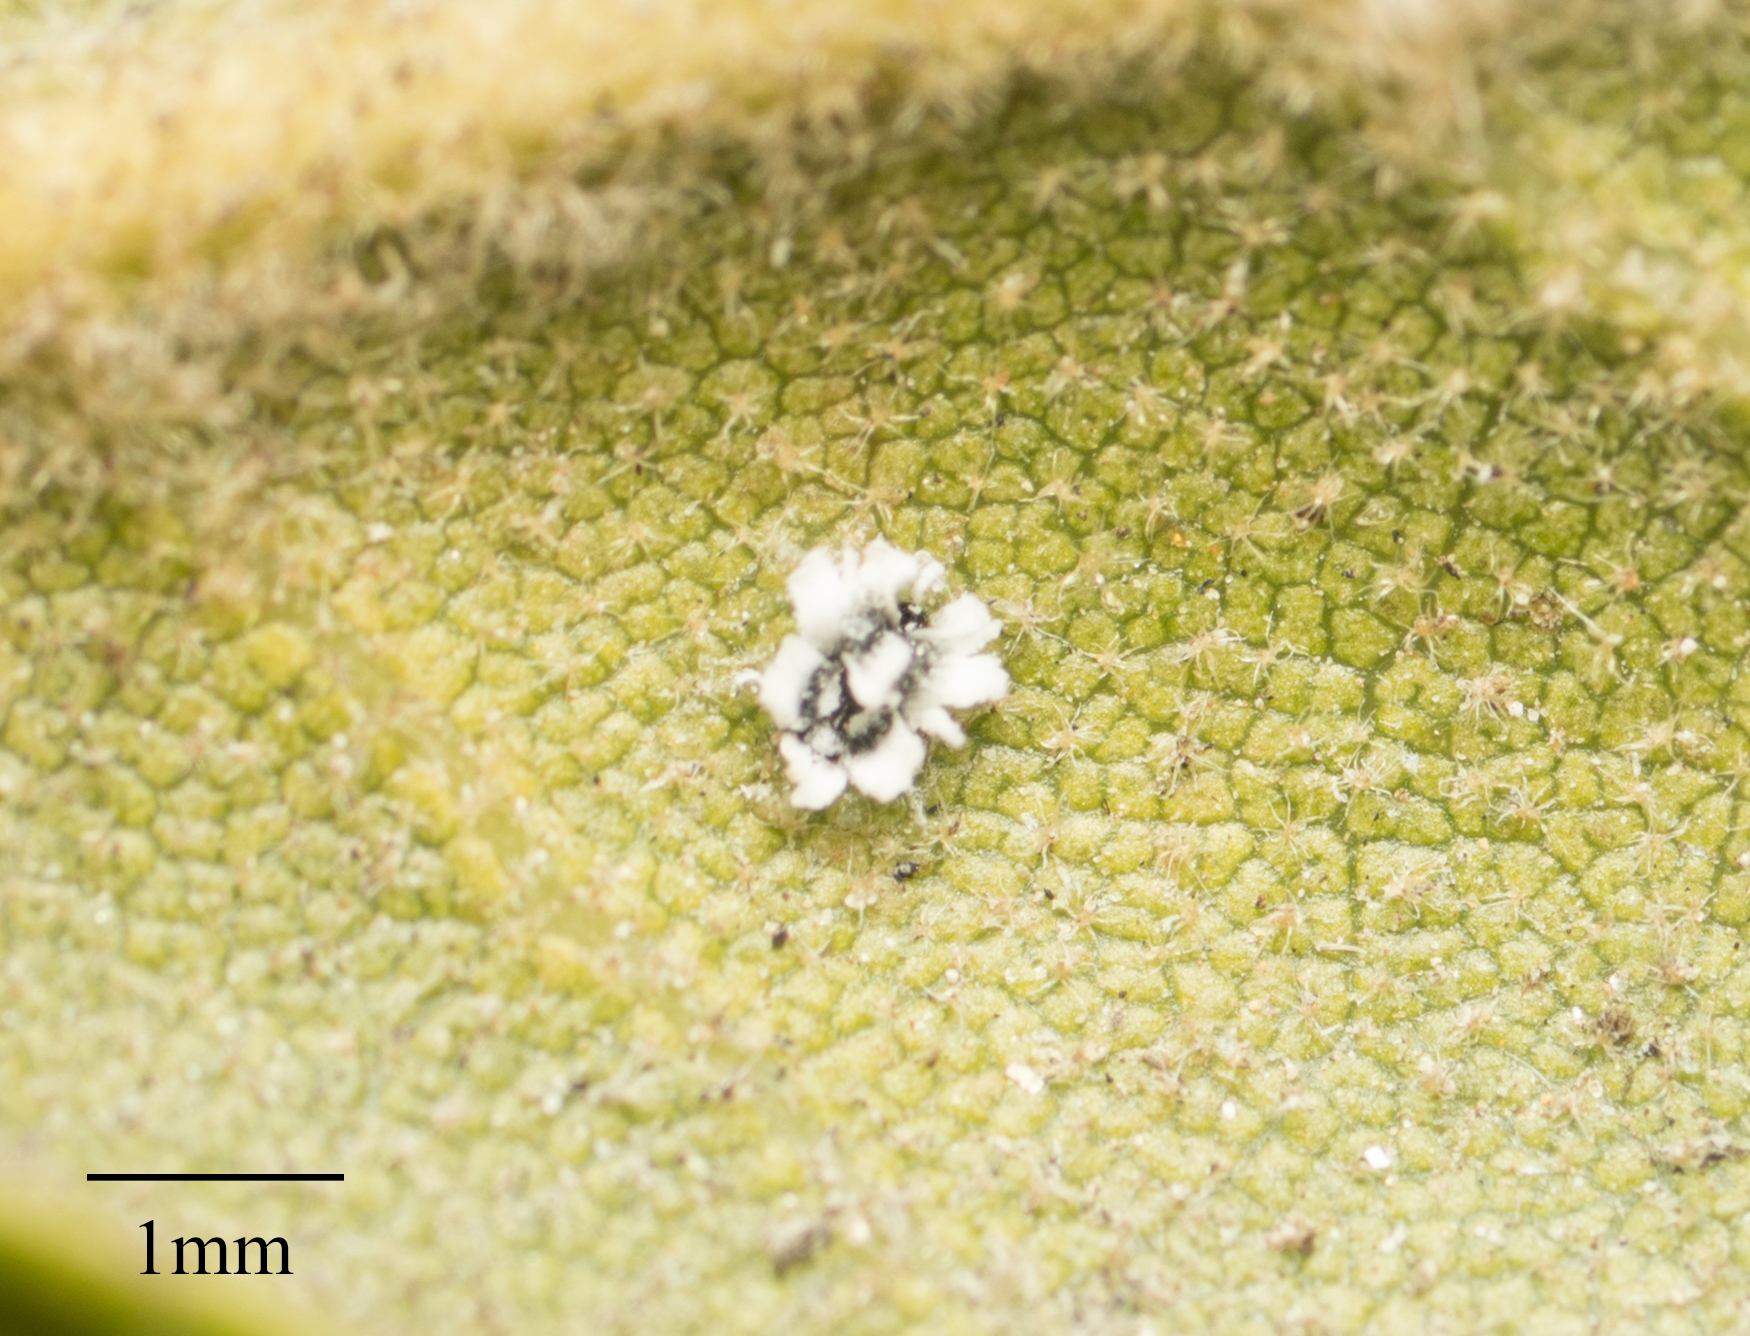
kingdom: Animalia
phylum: Arthropoda
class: Insecta
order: Hemiptera
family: Aleyrodidae
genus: Aleuroplatus
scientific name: Aleuroplatus coronata
